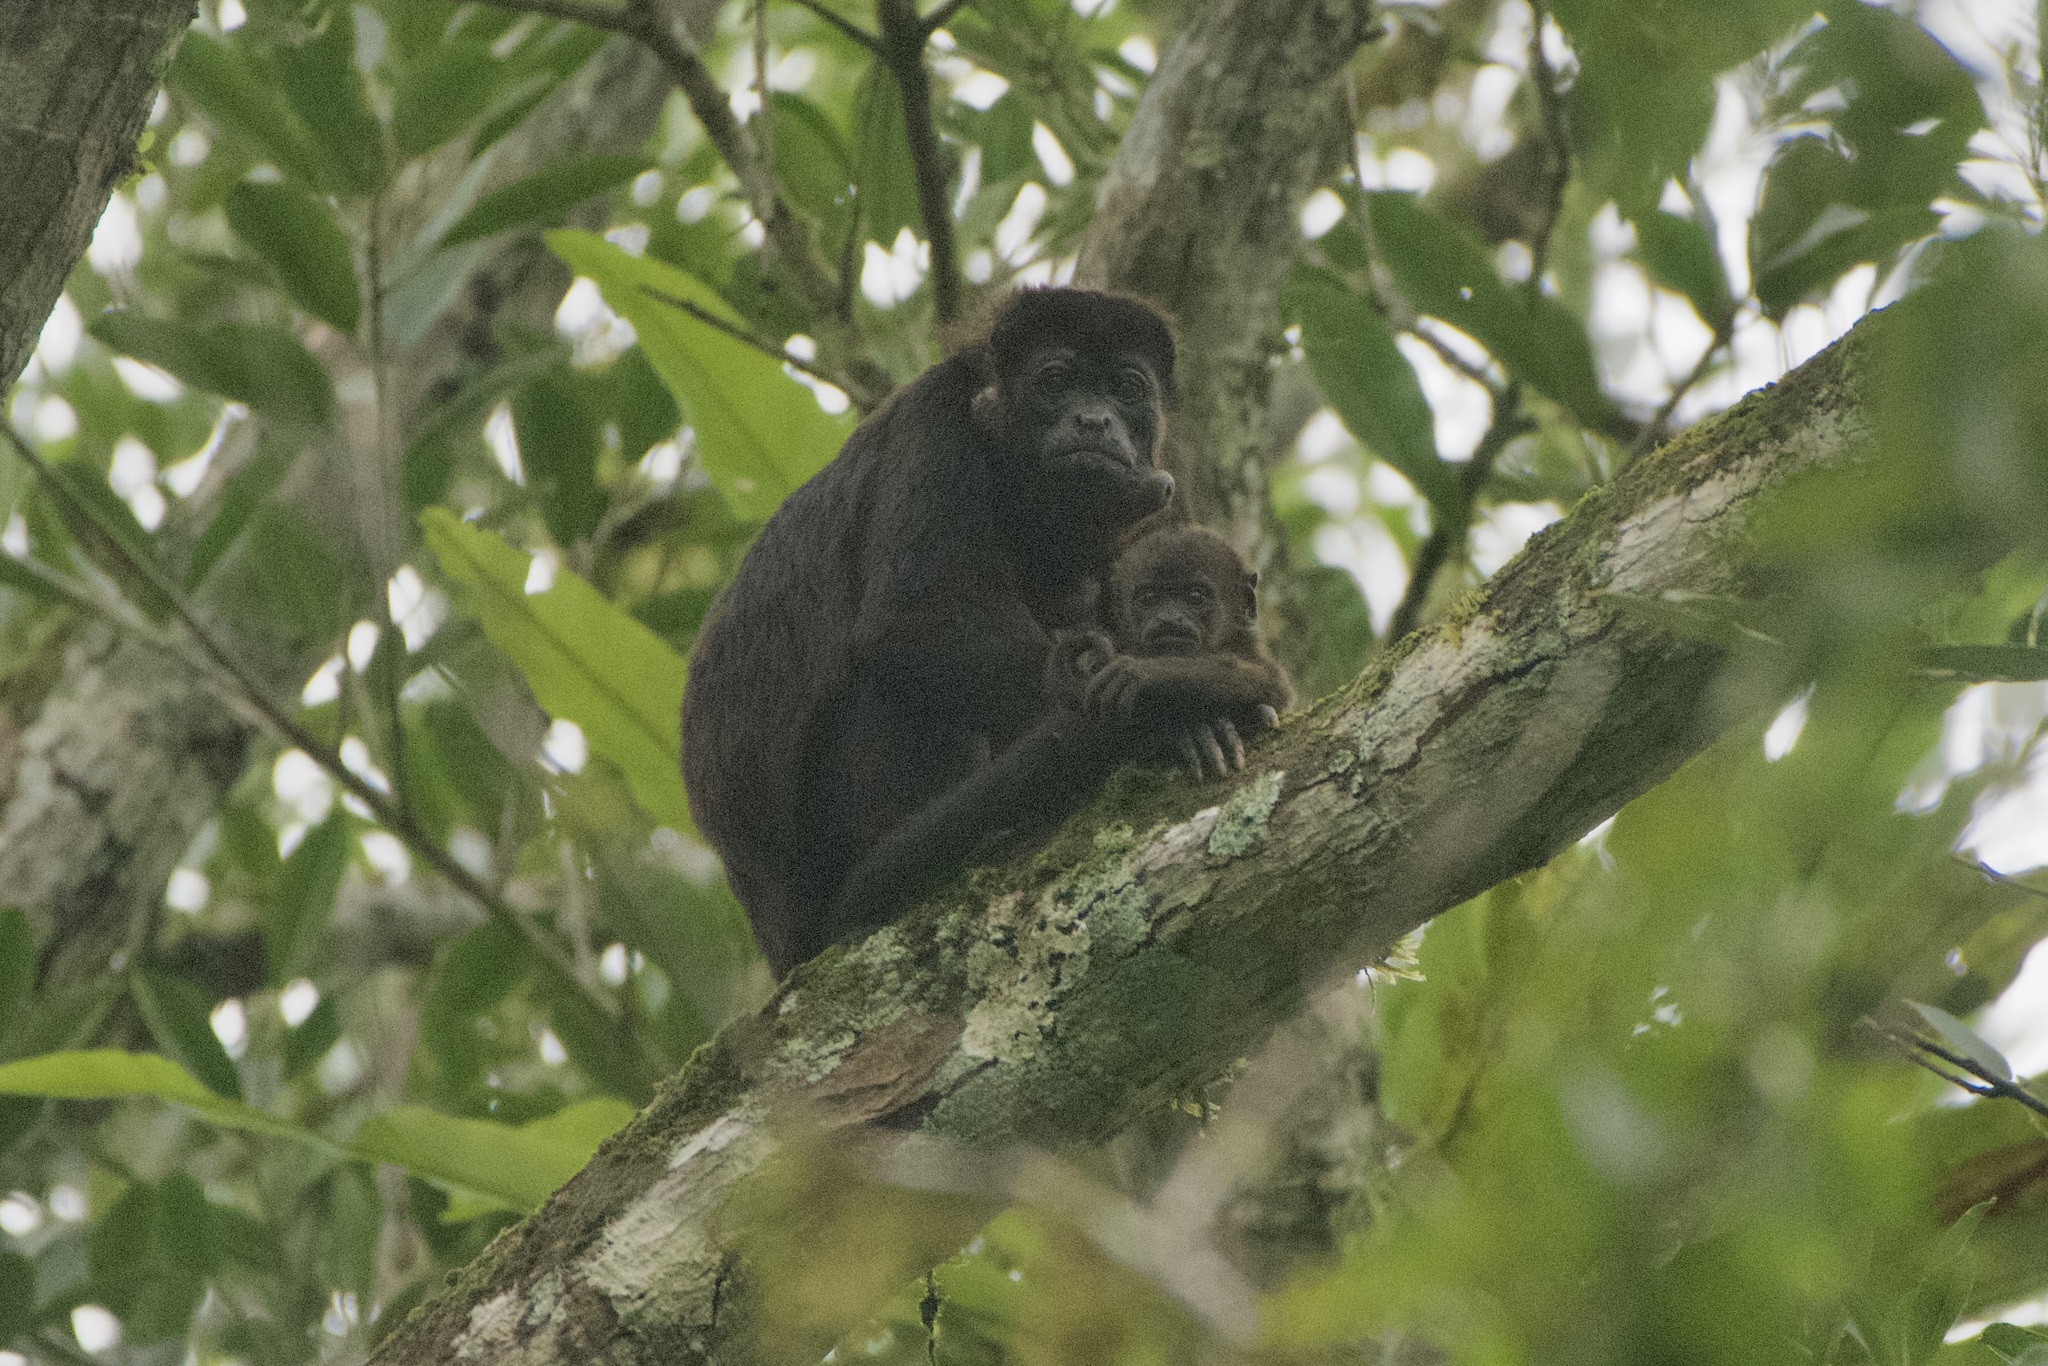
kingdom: Animalia
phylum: Chordata
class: Mammalia
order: Primates
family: Atelidae
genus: Alouatta
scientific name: Alouatta palliata
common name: Mantled howler
